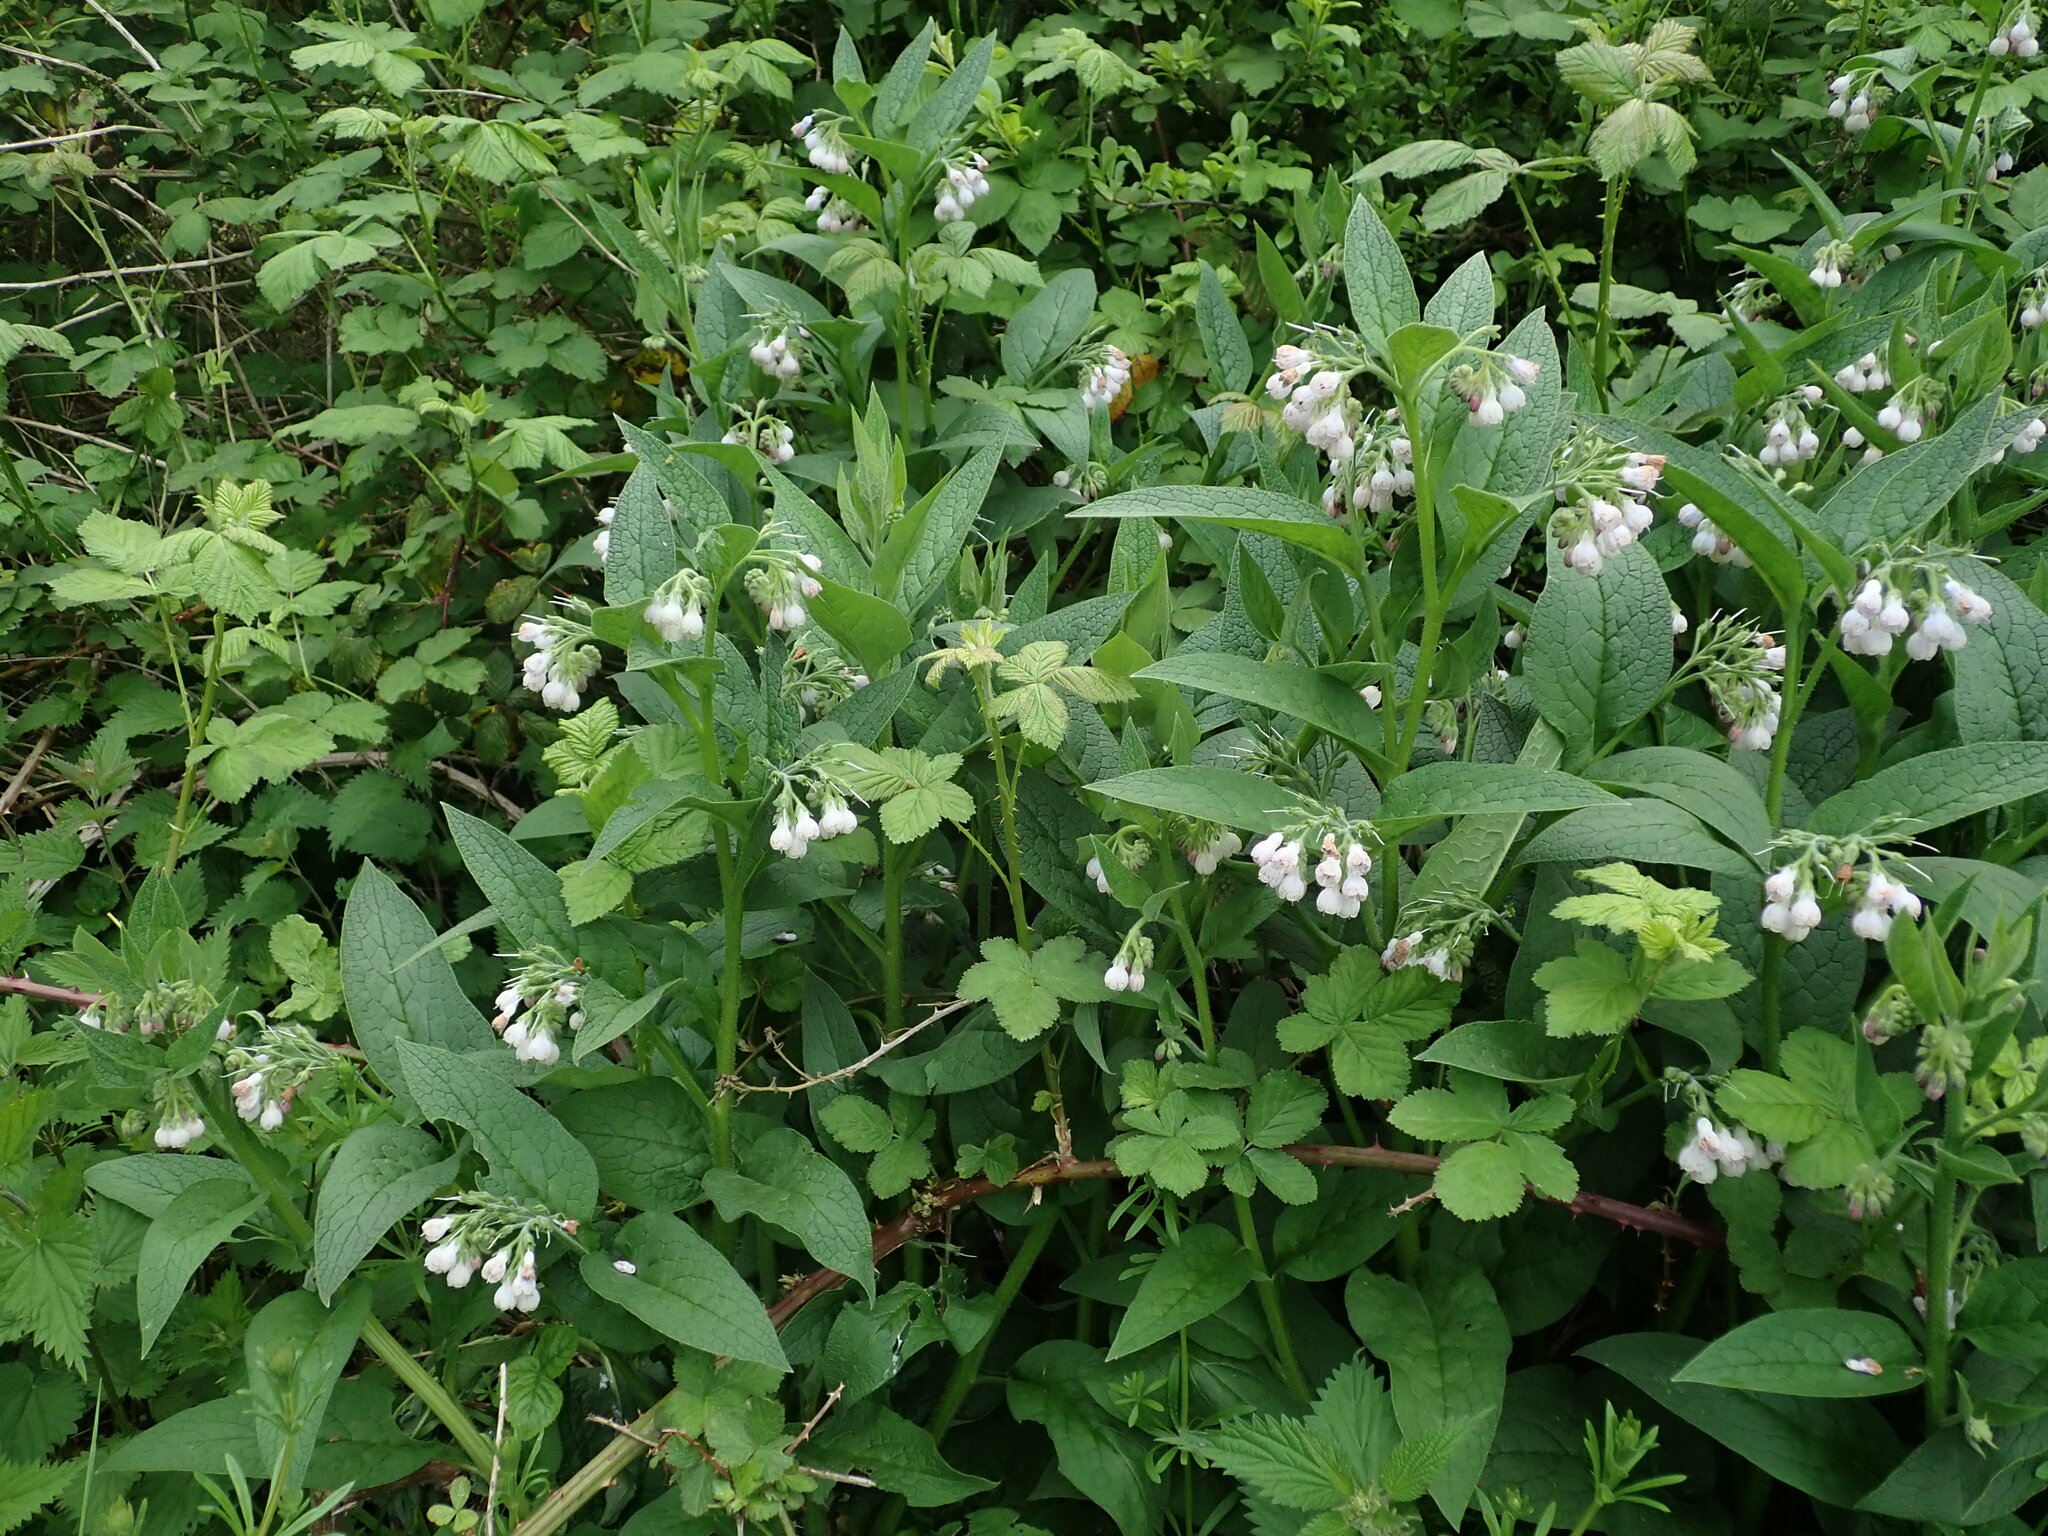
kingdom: Plantae
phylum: Tracheophyta
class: Magnoliopsida
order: Boraginales
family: Boraginaceae
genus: Symphytum
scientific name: Symphytum uplandicum
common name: Russian comfrey
